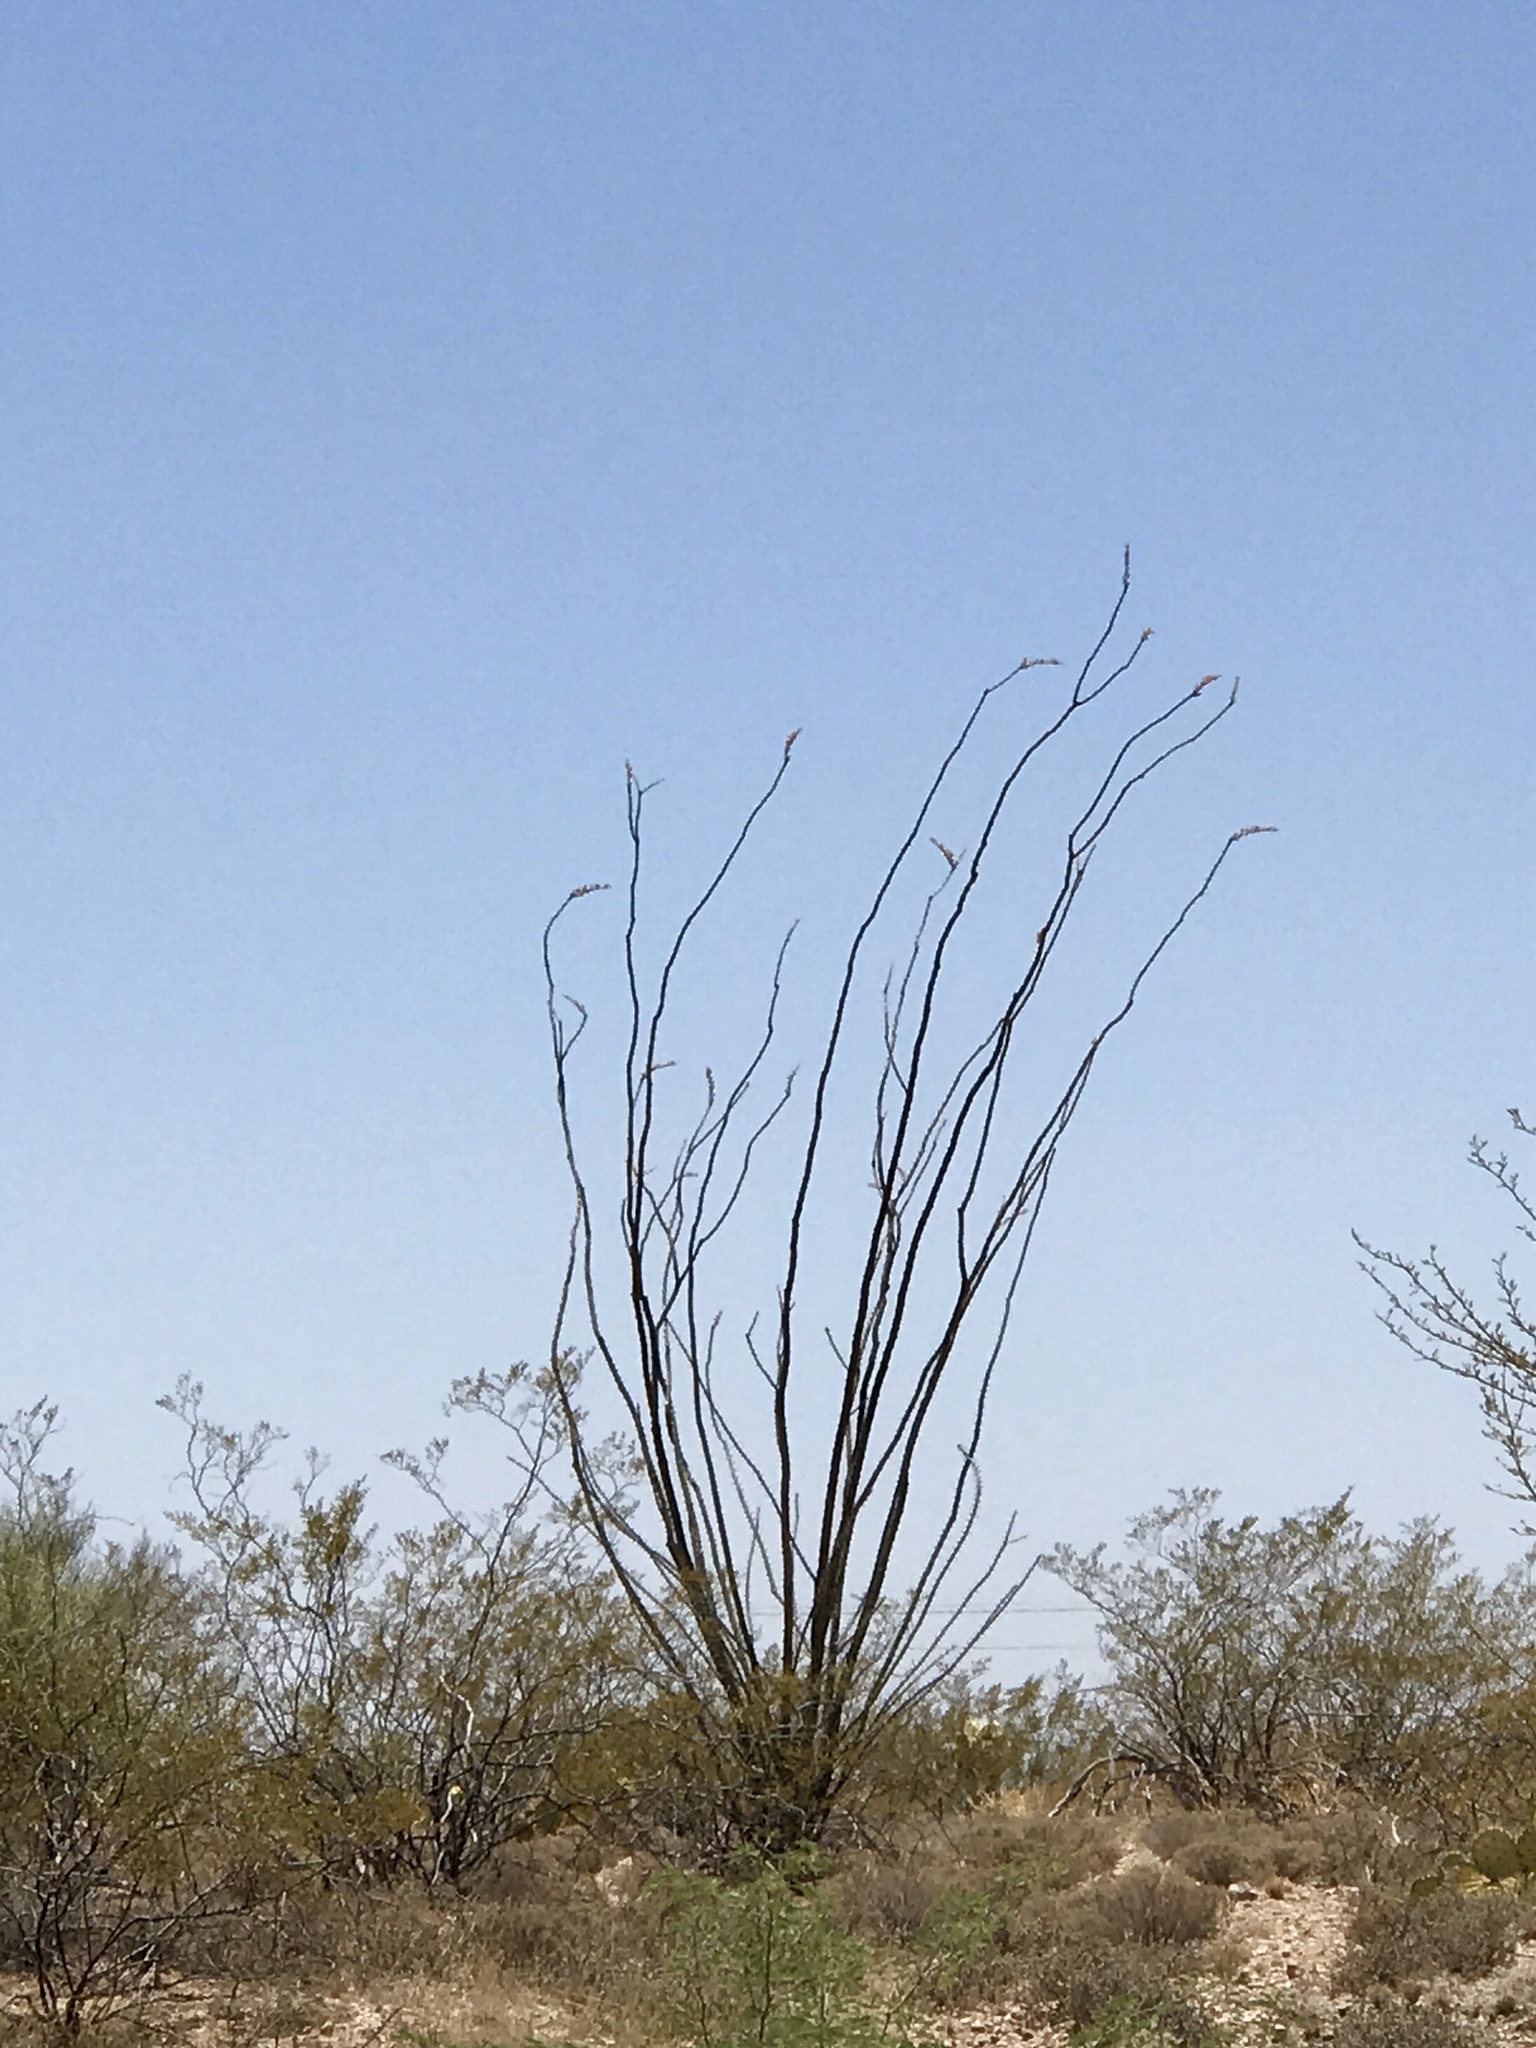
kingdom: Plantae
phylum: Tracheophyta
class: Magnoliopsida
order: Ericales
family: Fouquieriaceae
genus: Fouquieria
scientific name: Fouquieria splendens
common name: Vine-cactus
